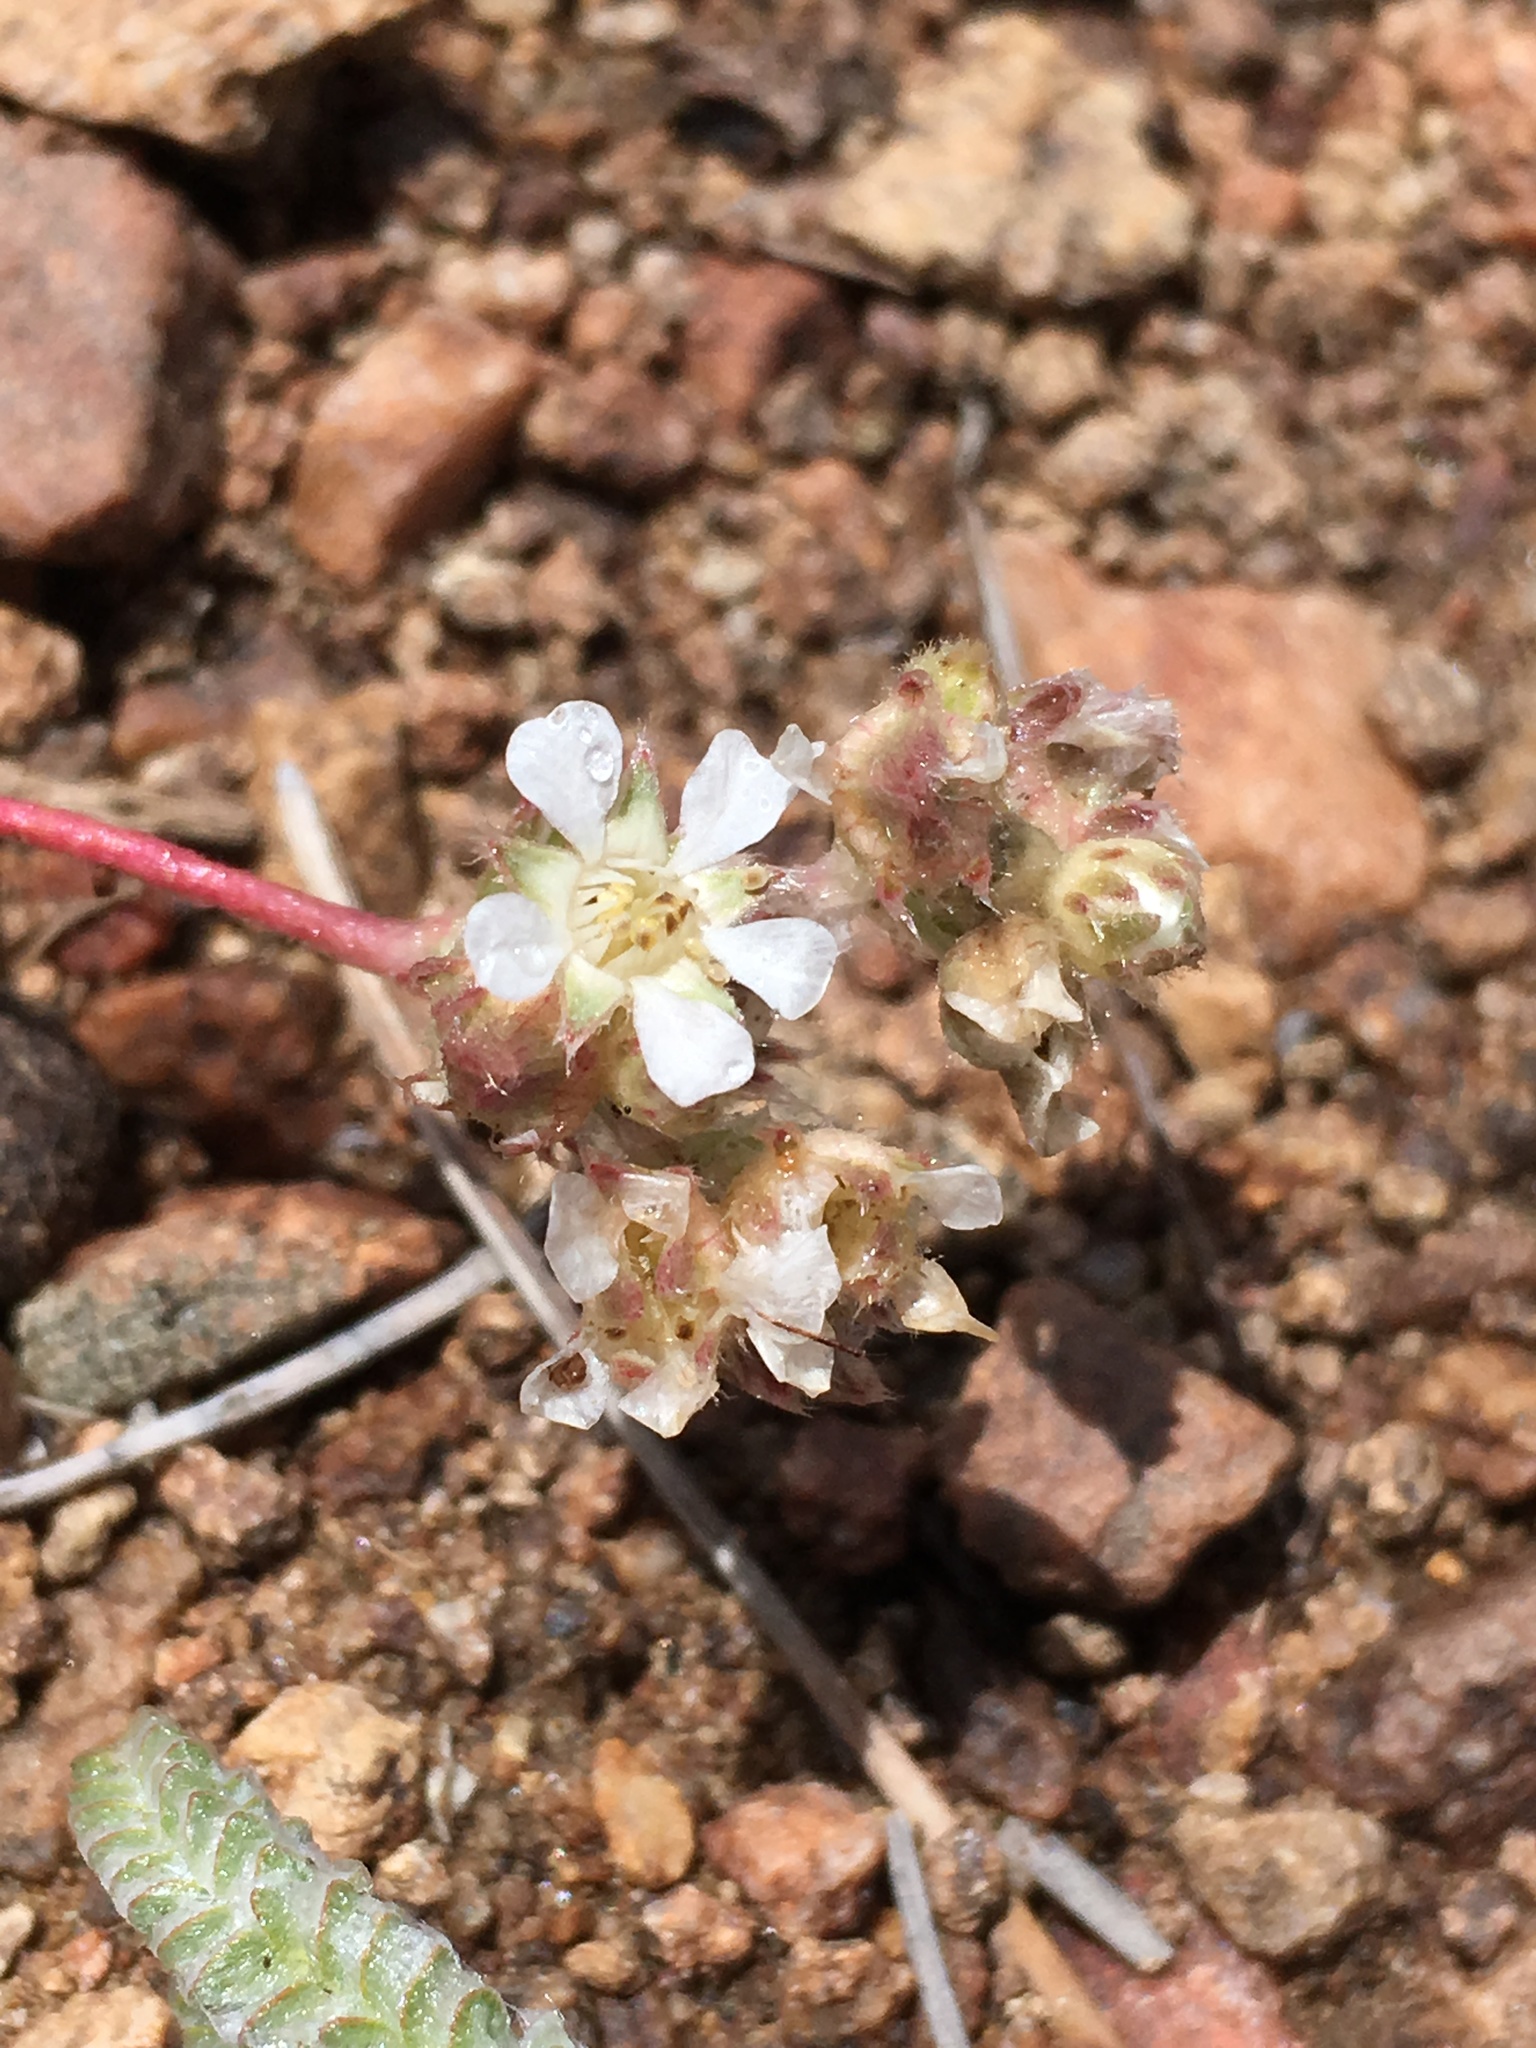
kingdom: Plantae
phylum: Tracheophyta
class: Magnoliopsida
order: Rosales
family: Rosaceae
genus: Potentilla
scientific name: Potentilla argyrocoma
